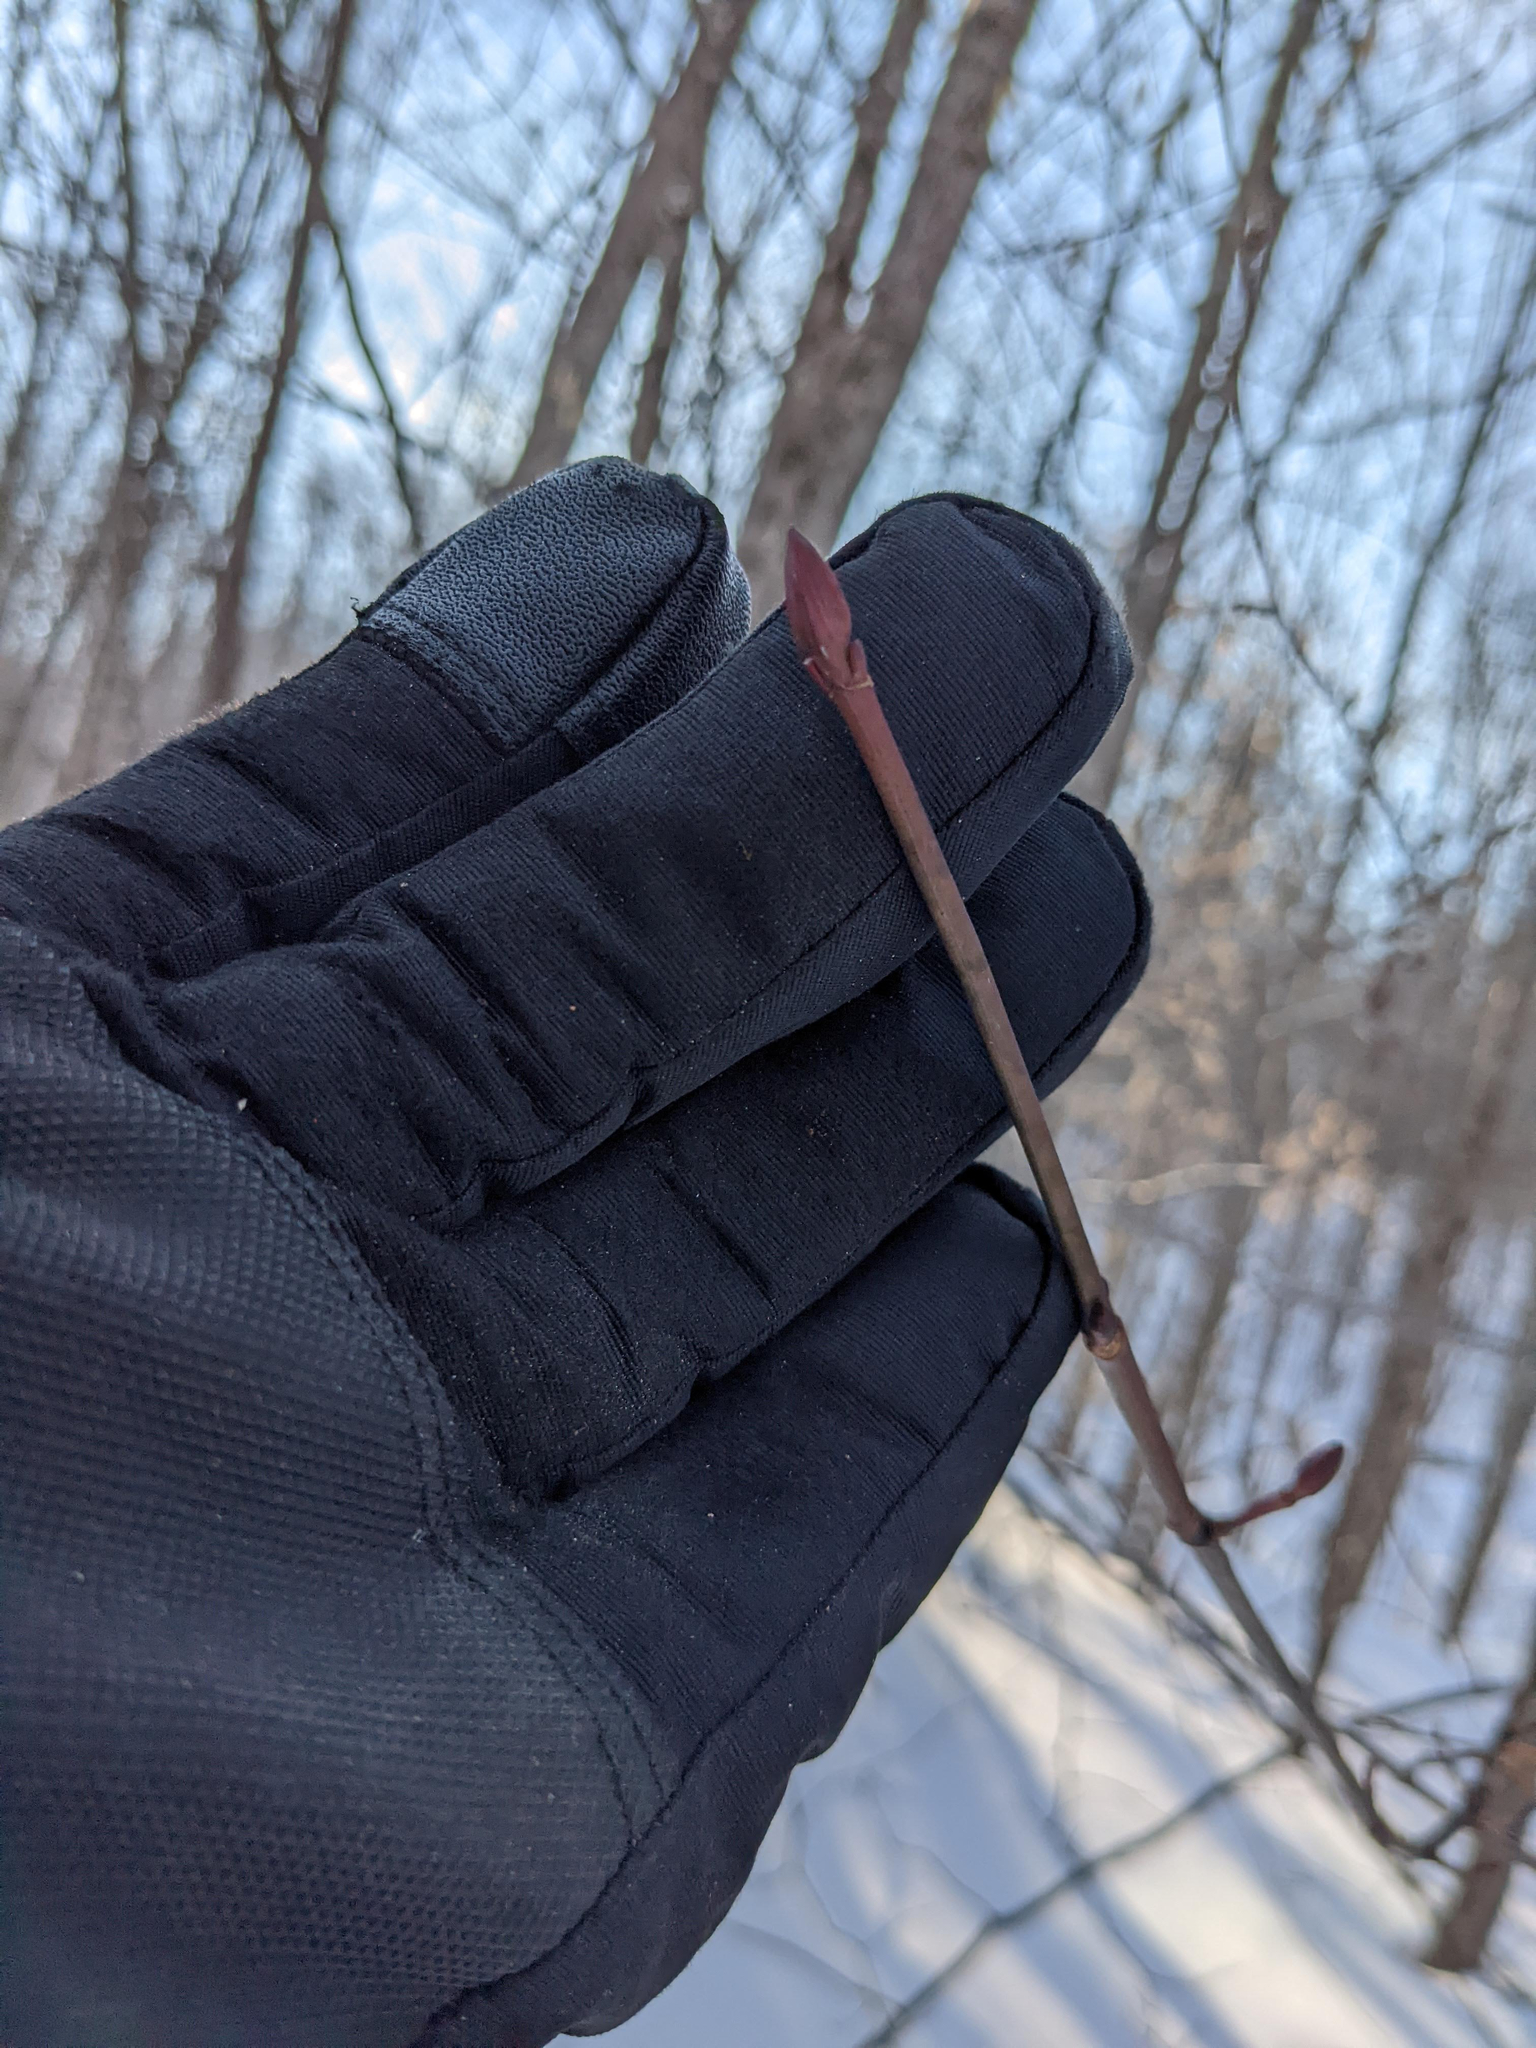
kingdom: Plantae
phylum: Tracheophyta
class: Magnoliopsida
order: Sapindales
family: Sapindaceae
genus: Acer
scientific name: Acer pensylvanicum
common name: Moosewood
